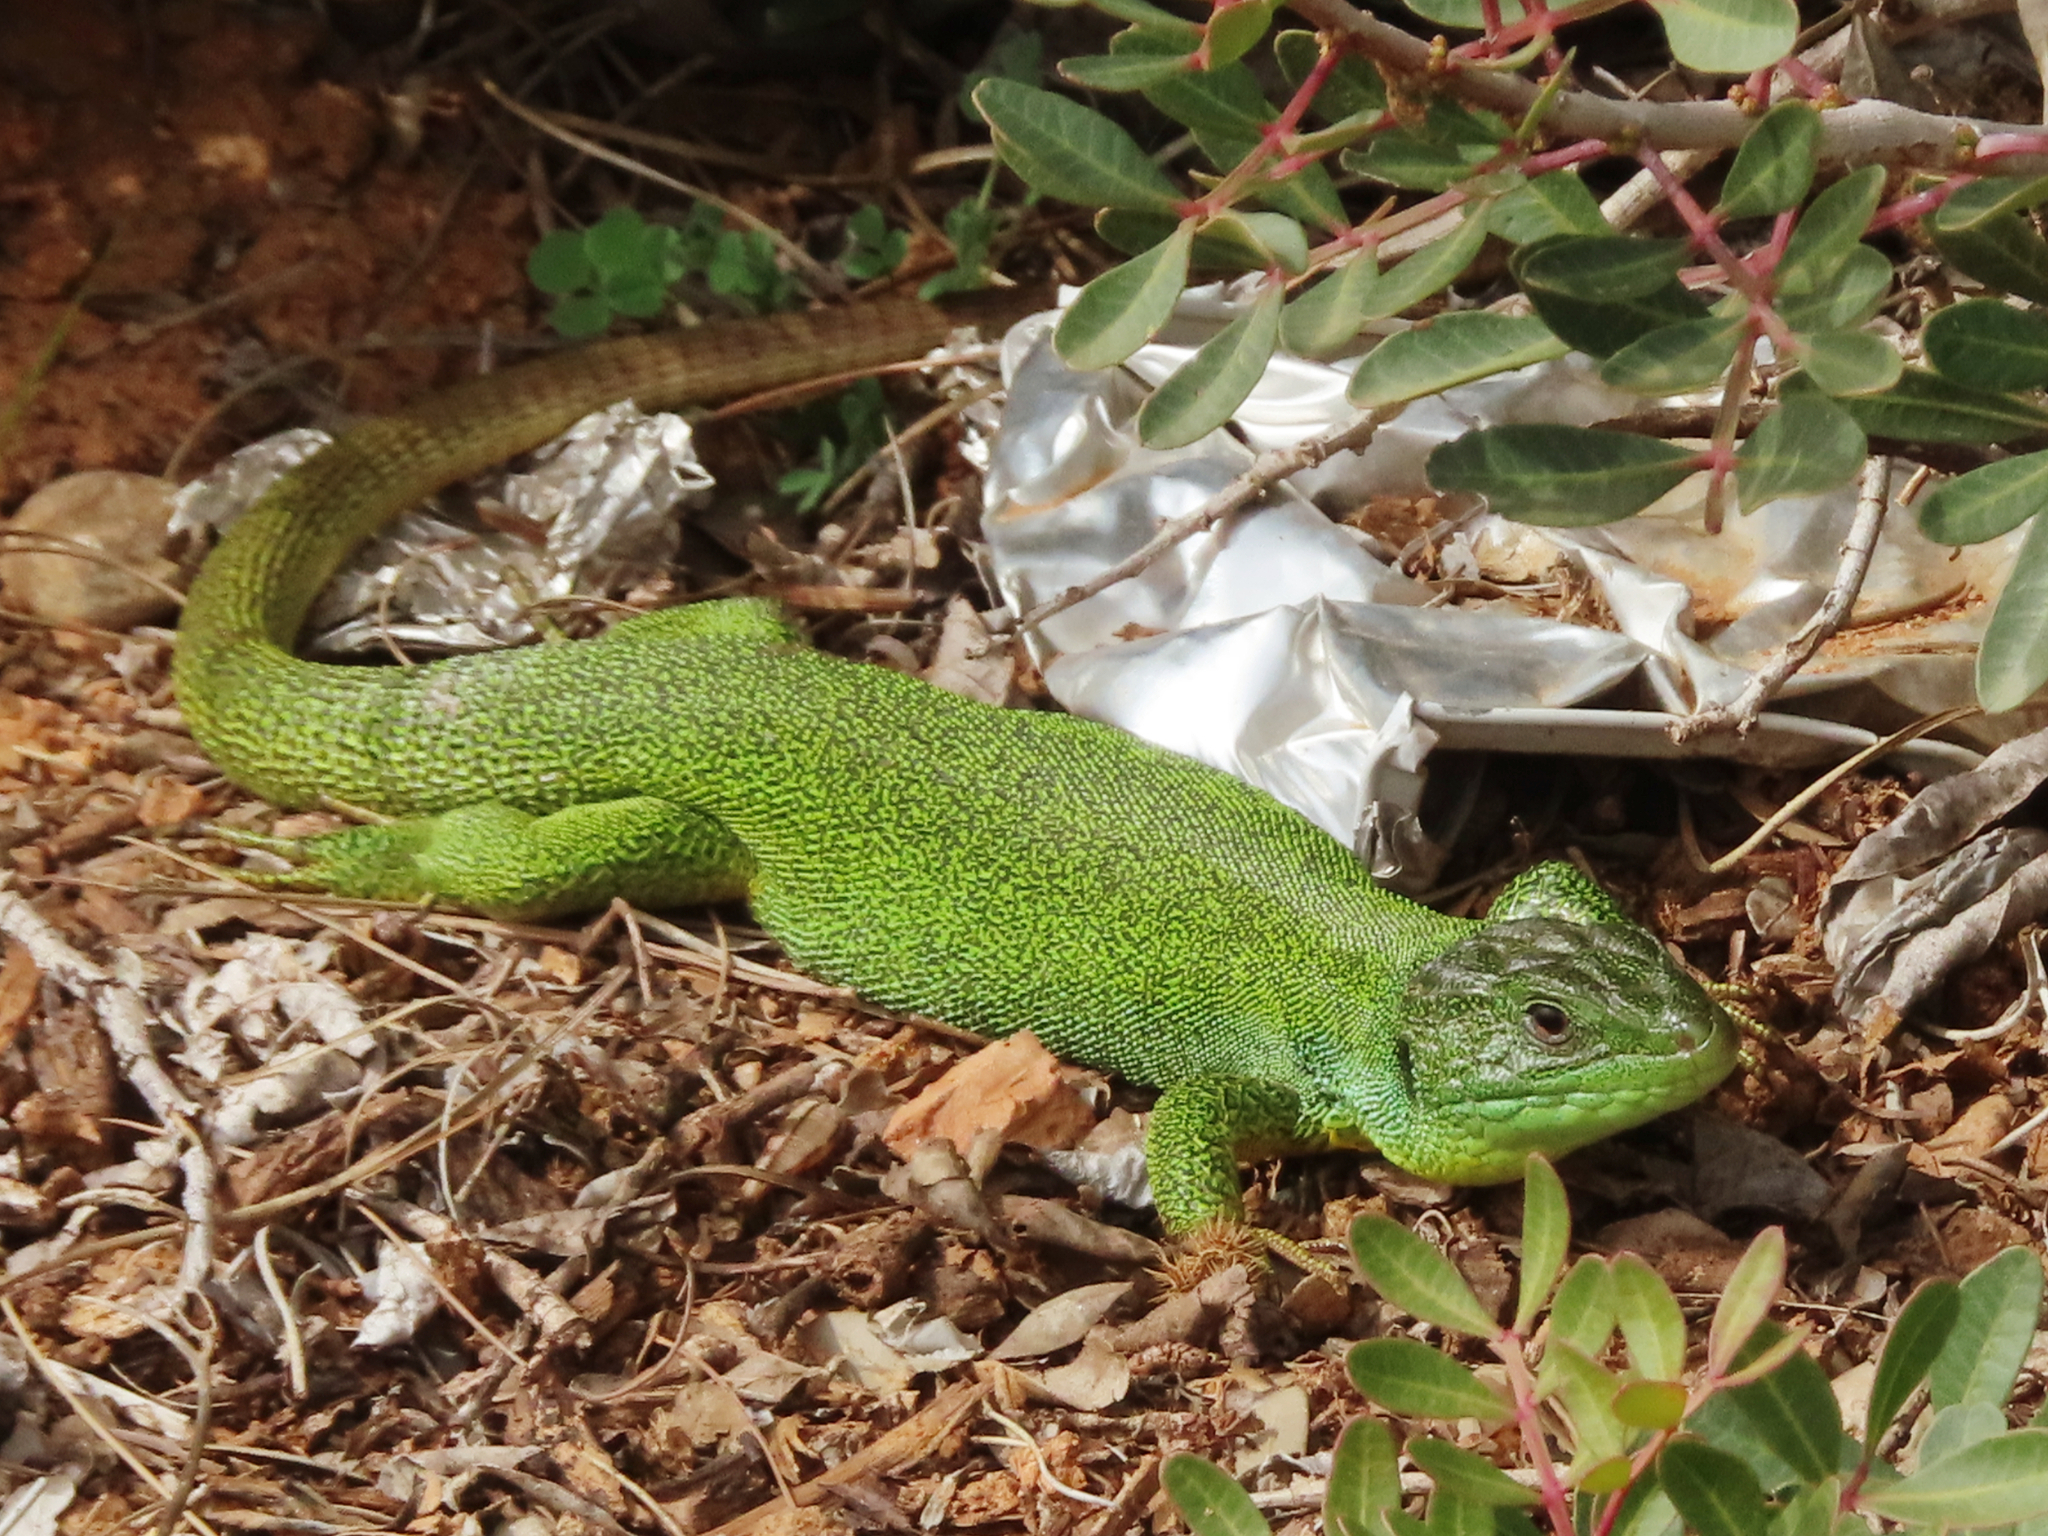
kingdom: Animalia
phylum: Chordata
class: Squamata
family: Lacertidae
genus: Lacerta
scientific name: Lacerta trilineata
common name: Balkan green lizard
